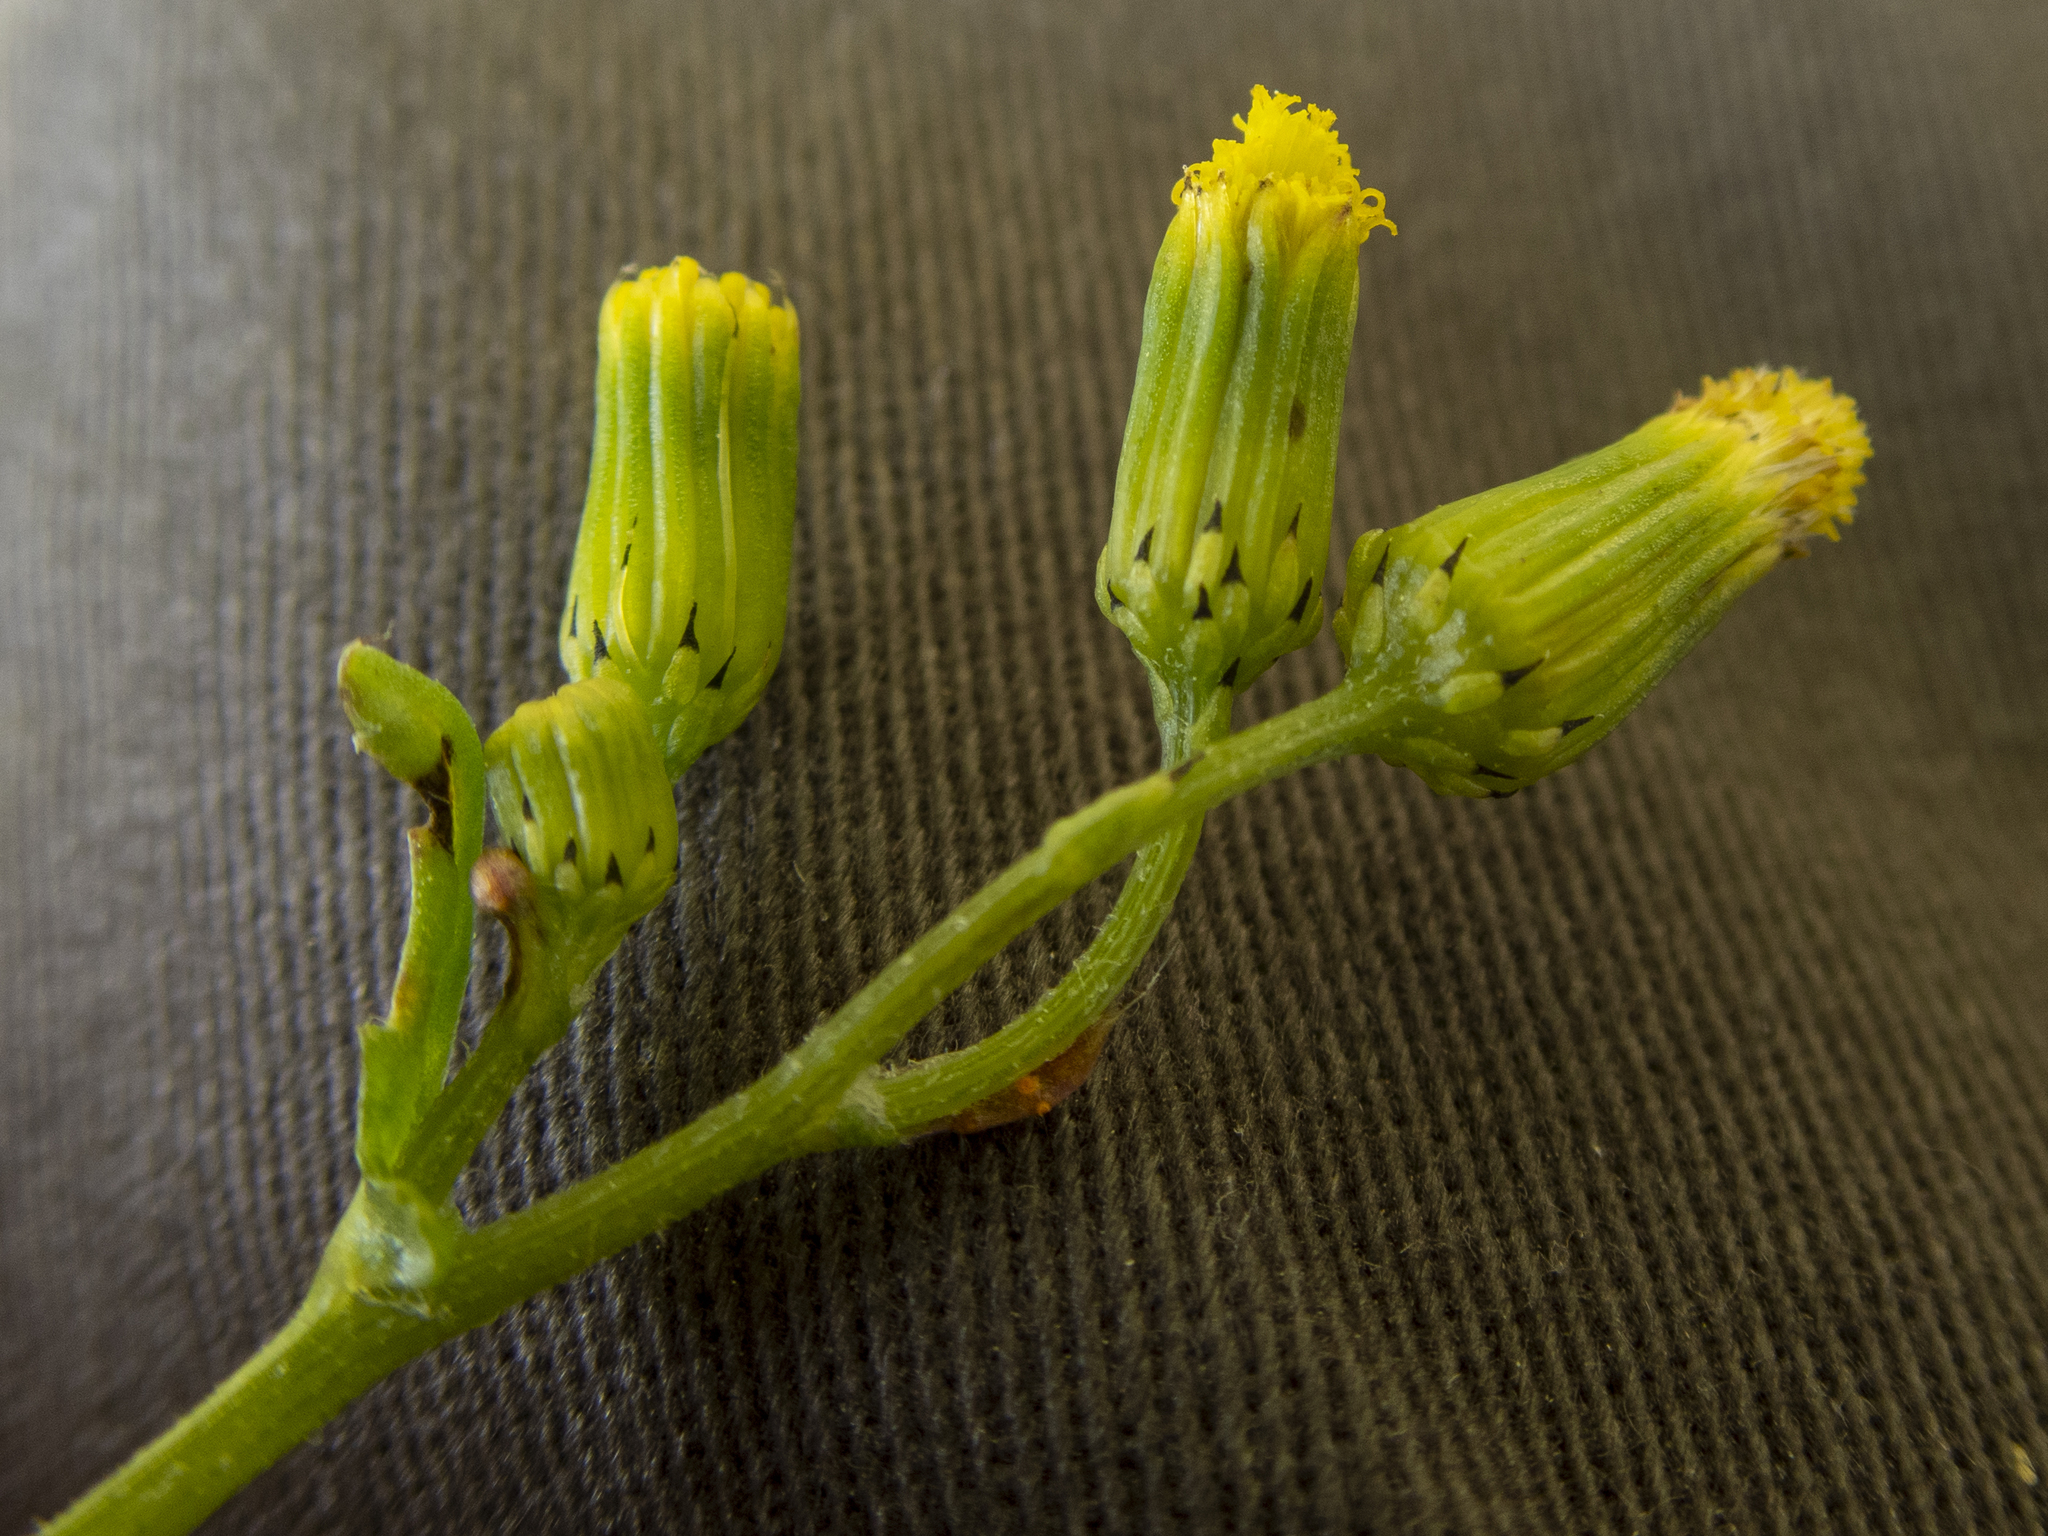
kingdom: Plantae
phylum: Tracheophyta
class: Magnoliopsida
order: Asterales
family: Asteraceae
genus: Senecio
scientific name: Senecio vulgaris
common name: Old-man-in-the-spring
